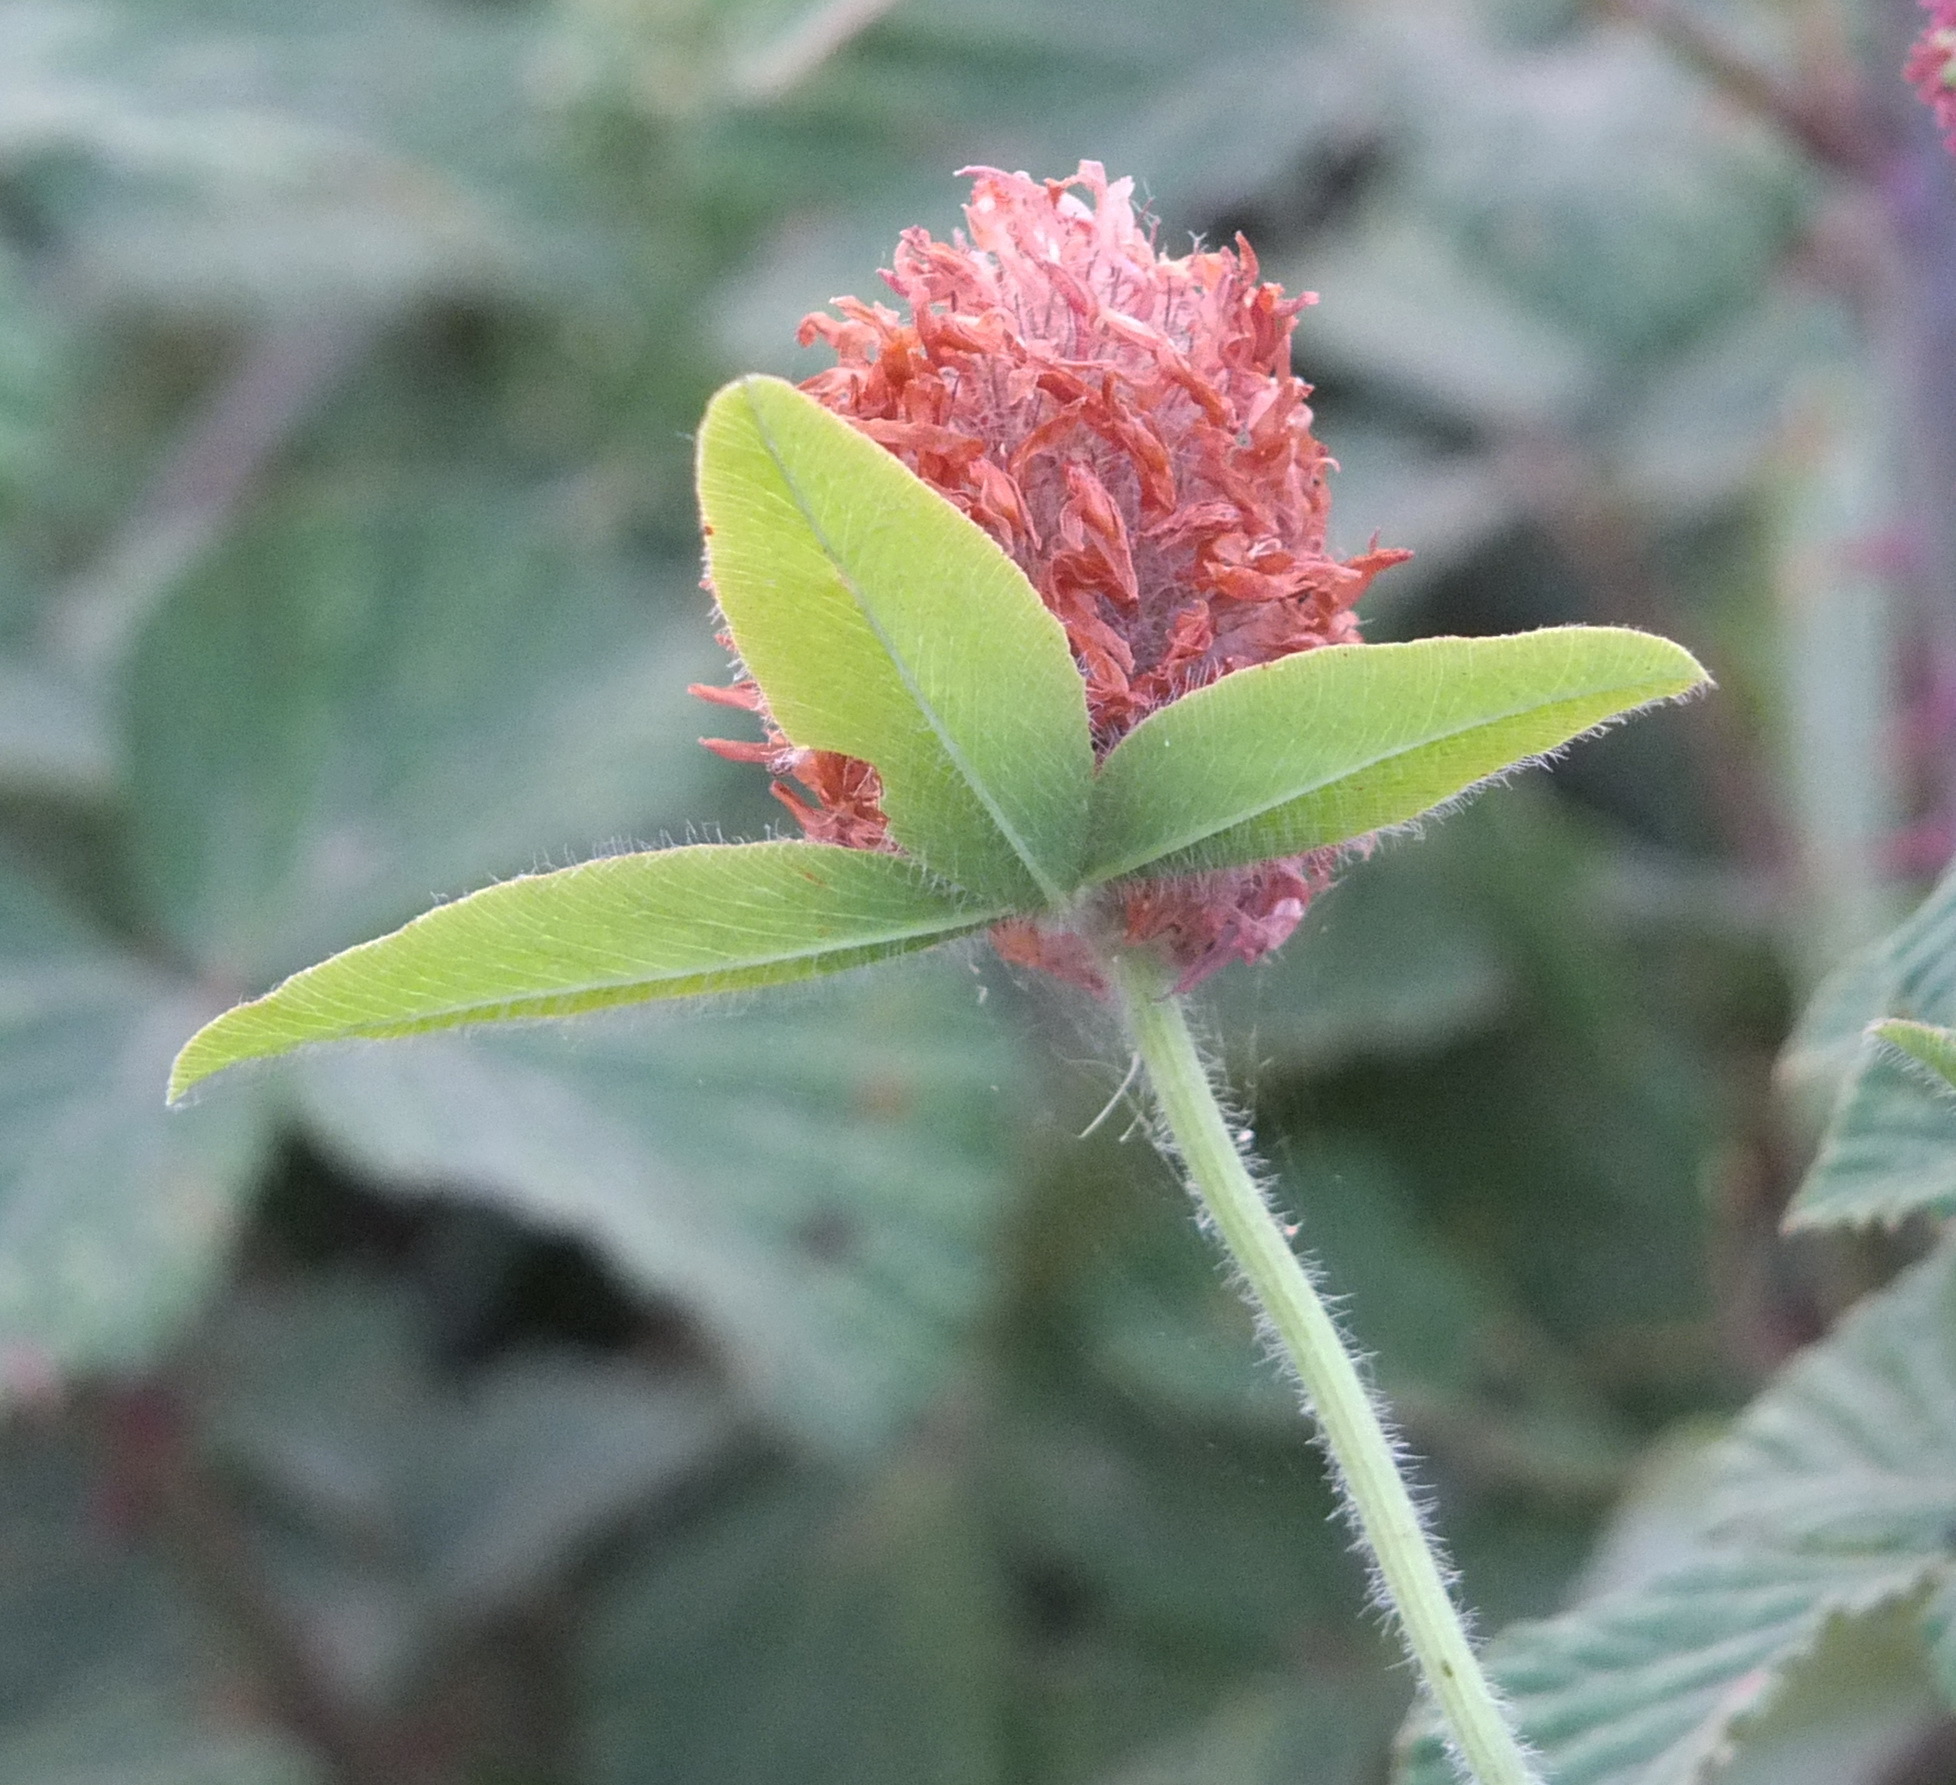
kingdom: Plantae
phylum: Tracheophyta
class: Magnoliopsida
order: Fabales
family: Fabaceae
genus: Trifolium
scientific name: Trifolium incarnatum
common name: Crimson clover
